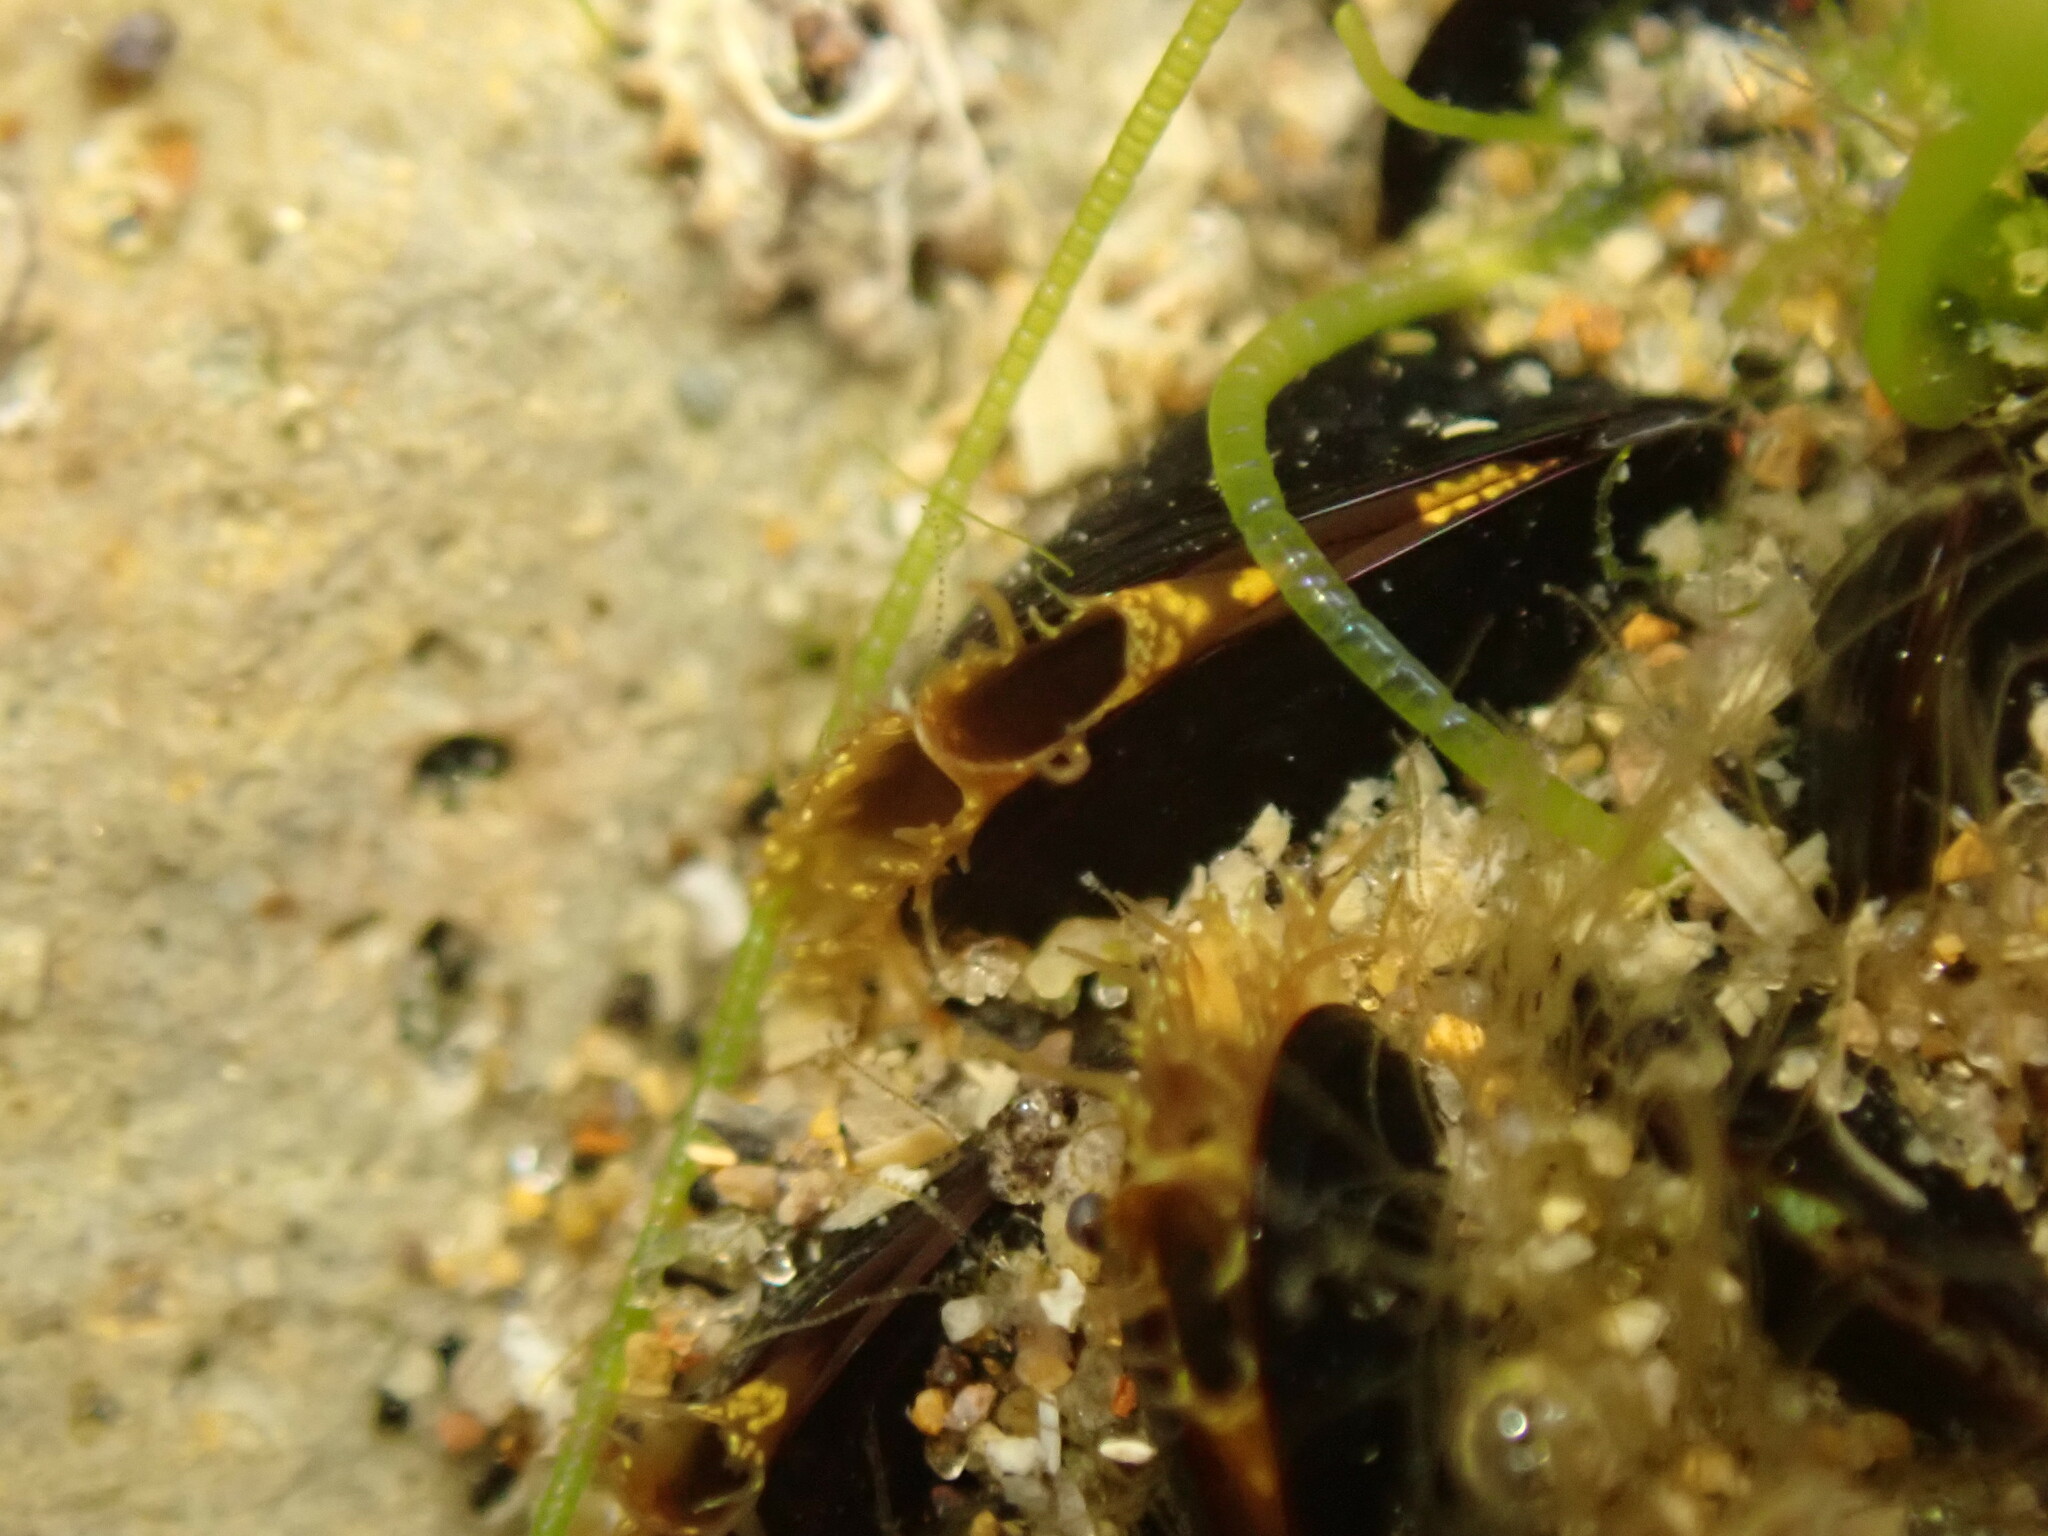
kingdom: Animalia
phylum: Mollusca
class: Bivalvia
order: Mytilida
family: Mytilidae
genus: Xenostrobus
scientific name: Xenostrobus neozelanicus
